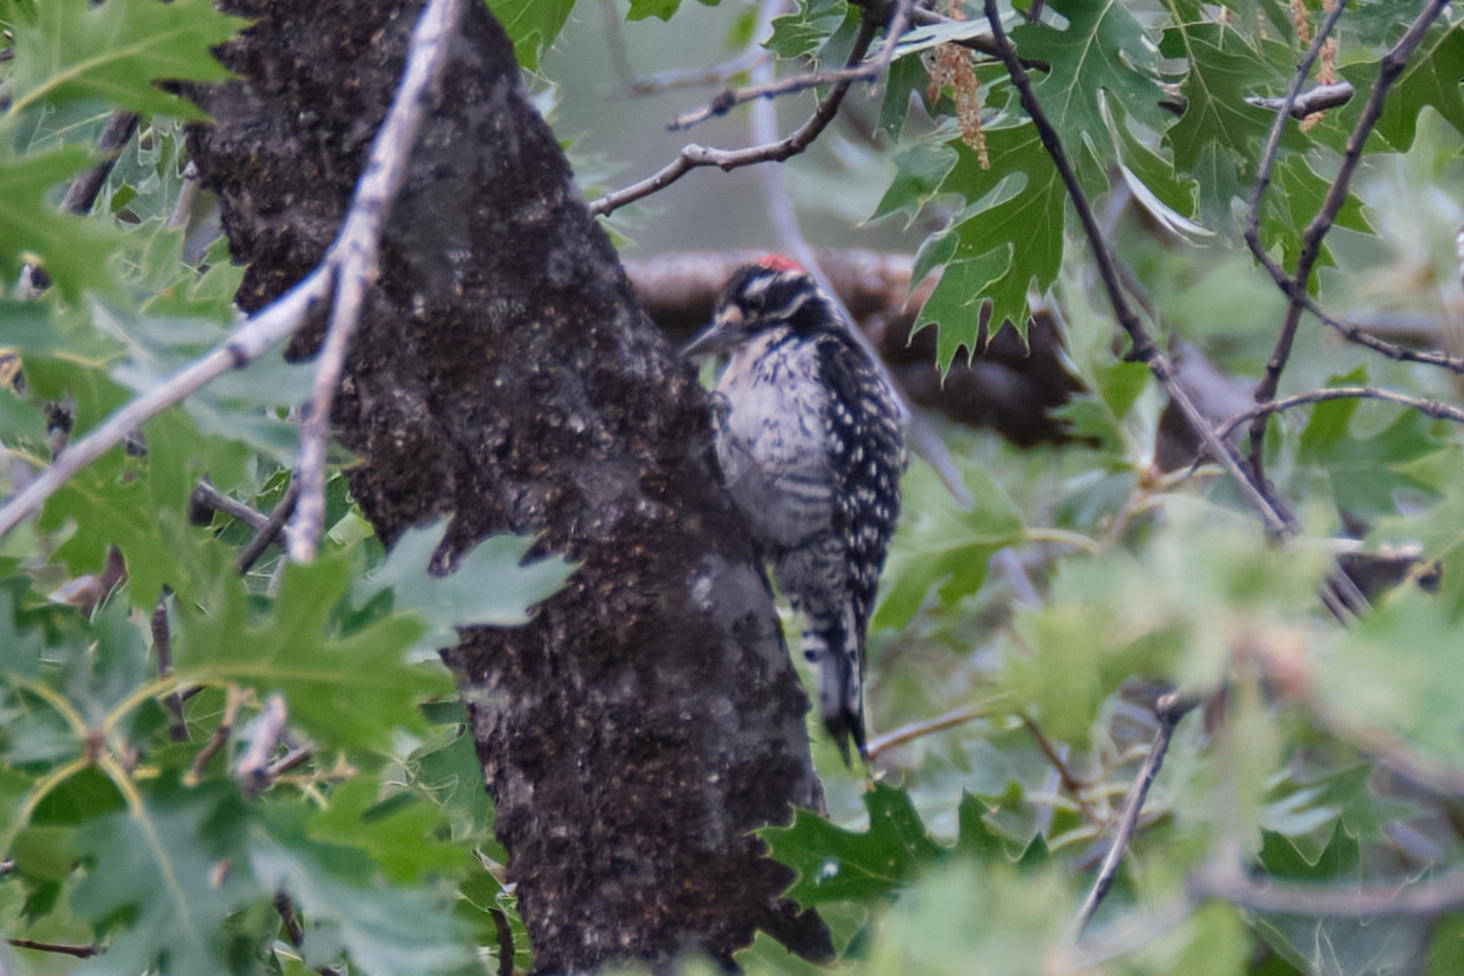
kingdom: Animalia
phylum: Chordata
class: Aves
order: Piciformes
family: Picidae
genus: Dryobates
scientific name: Dryobates nuttallii
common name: Nuttall's woodpecker
